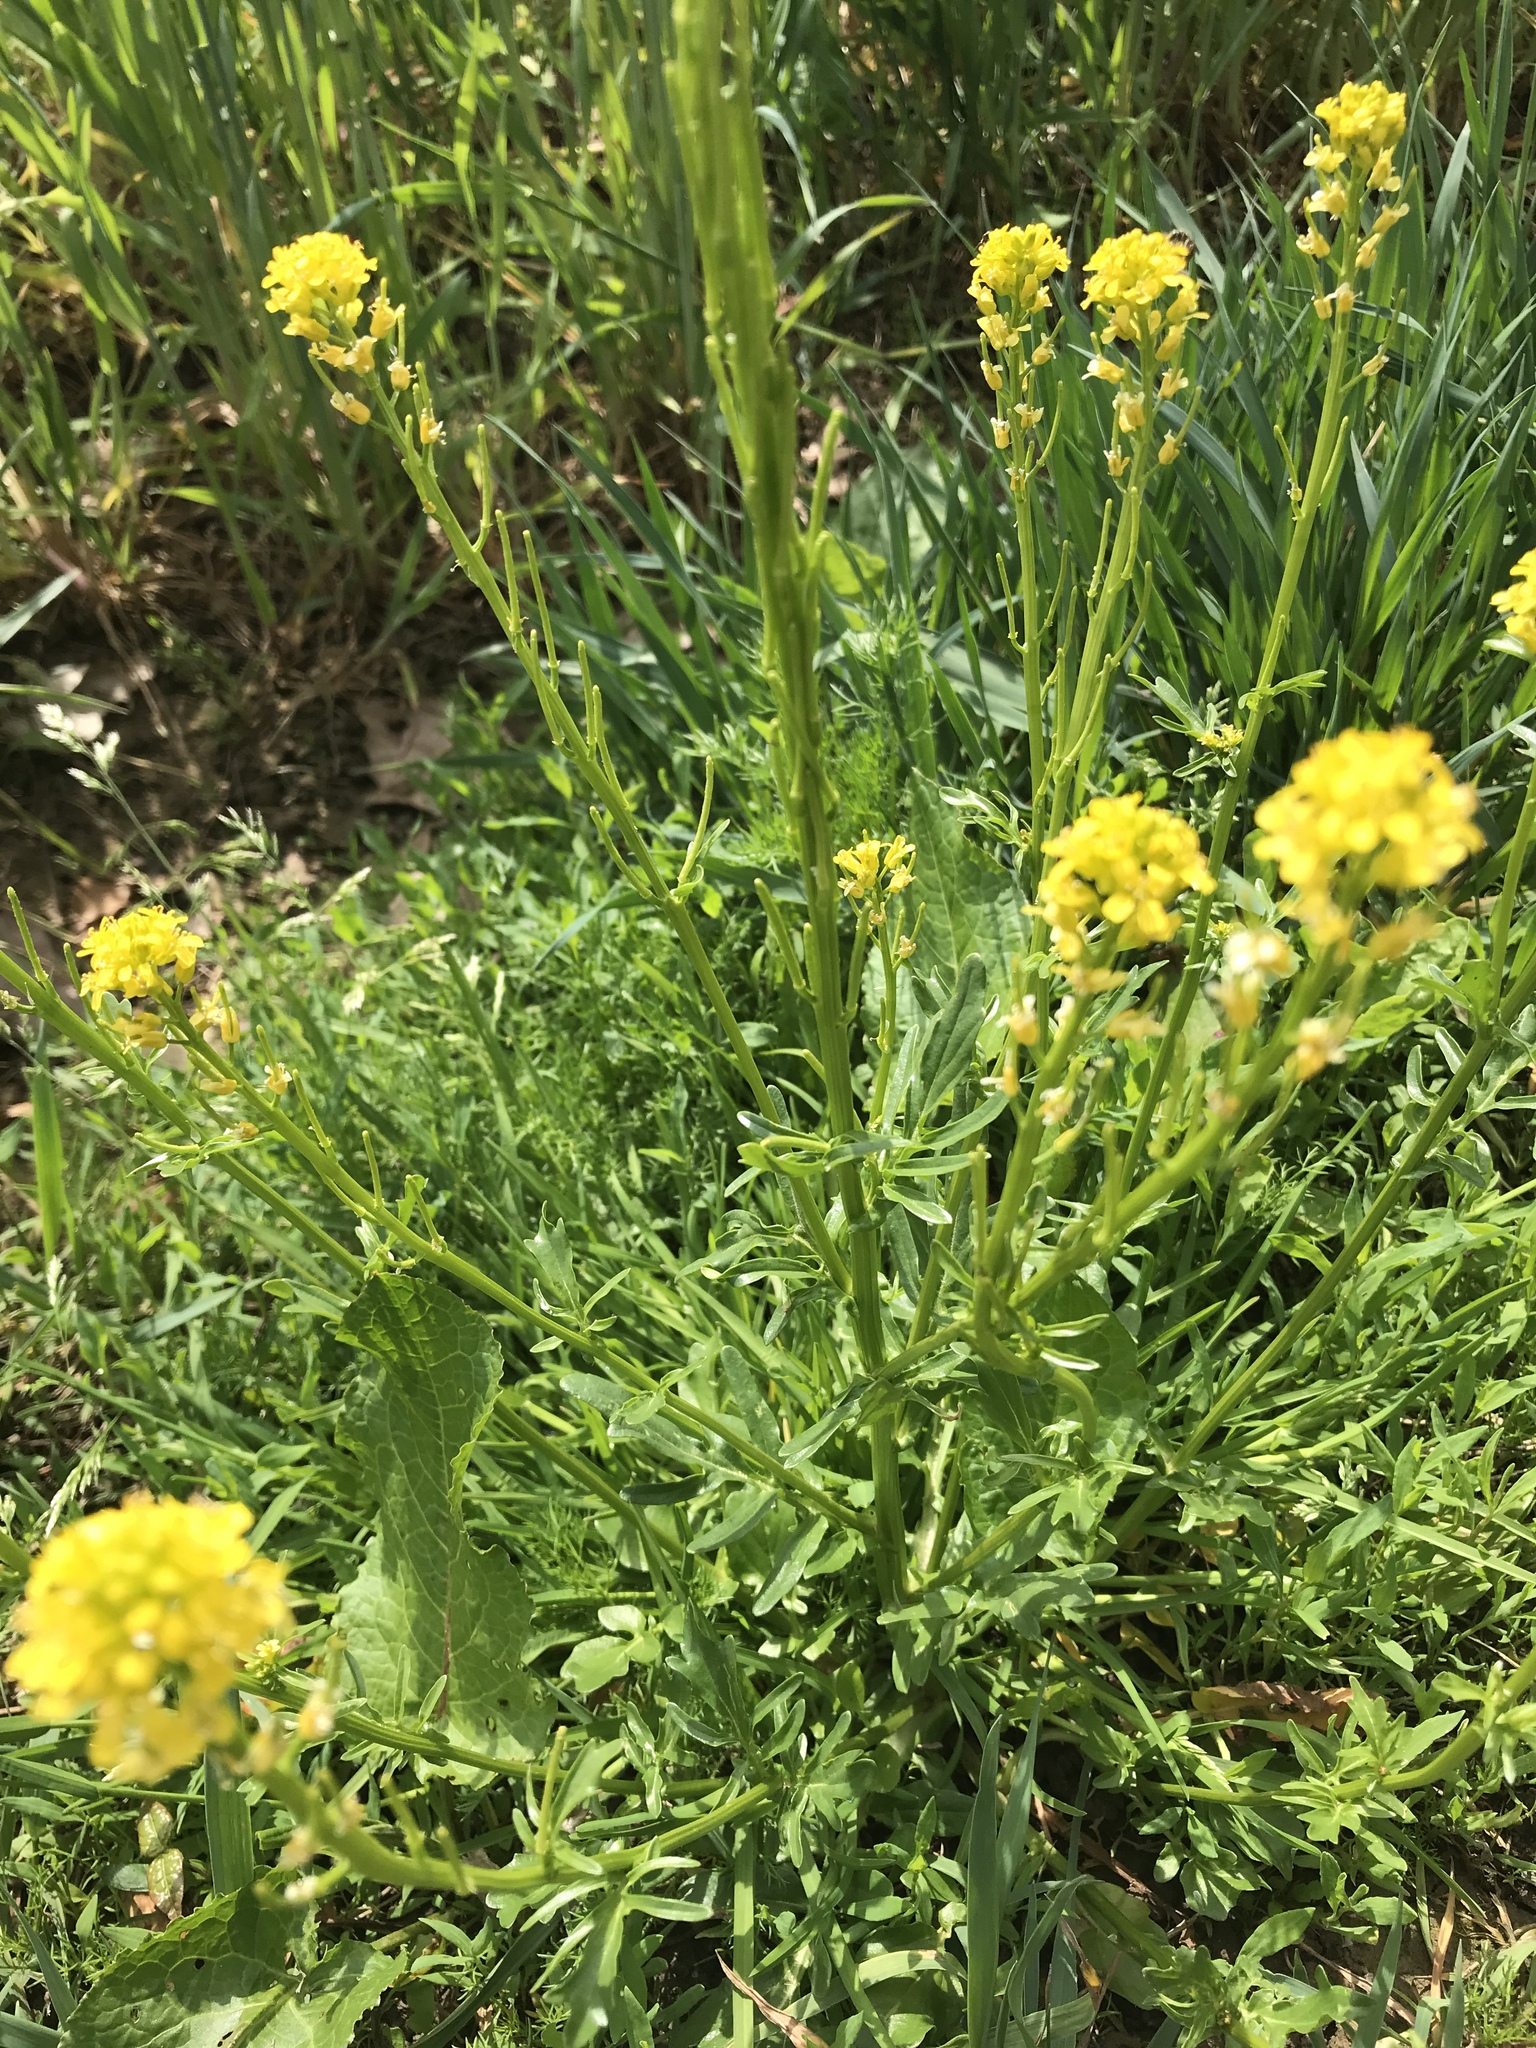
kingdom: Plantae
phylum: Tracheophyta
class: Magnoliopsida
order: Brassicales
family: Brassicaceae
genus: Barbarea
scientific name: Barbarea intermedia
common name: Medium-flowered winter-cress
